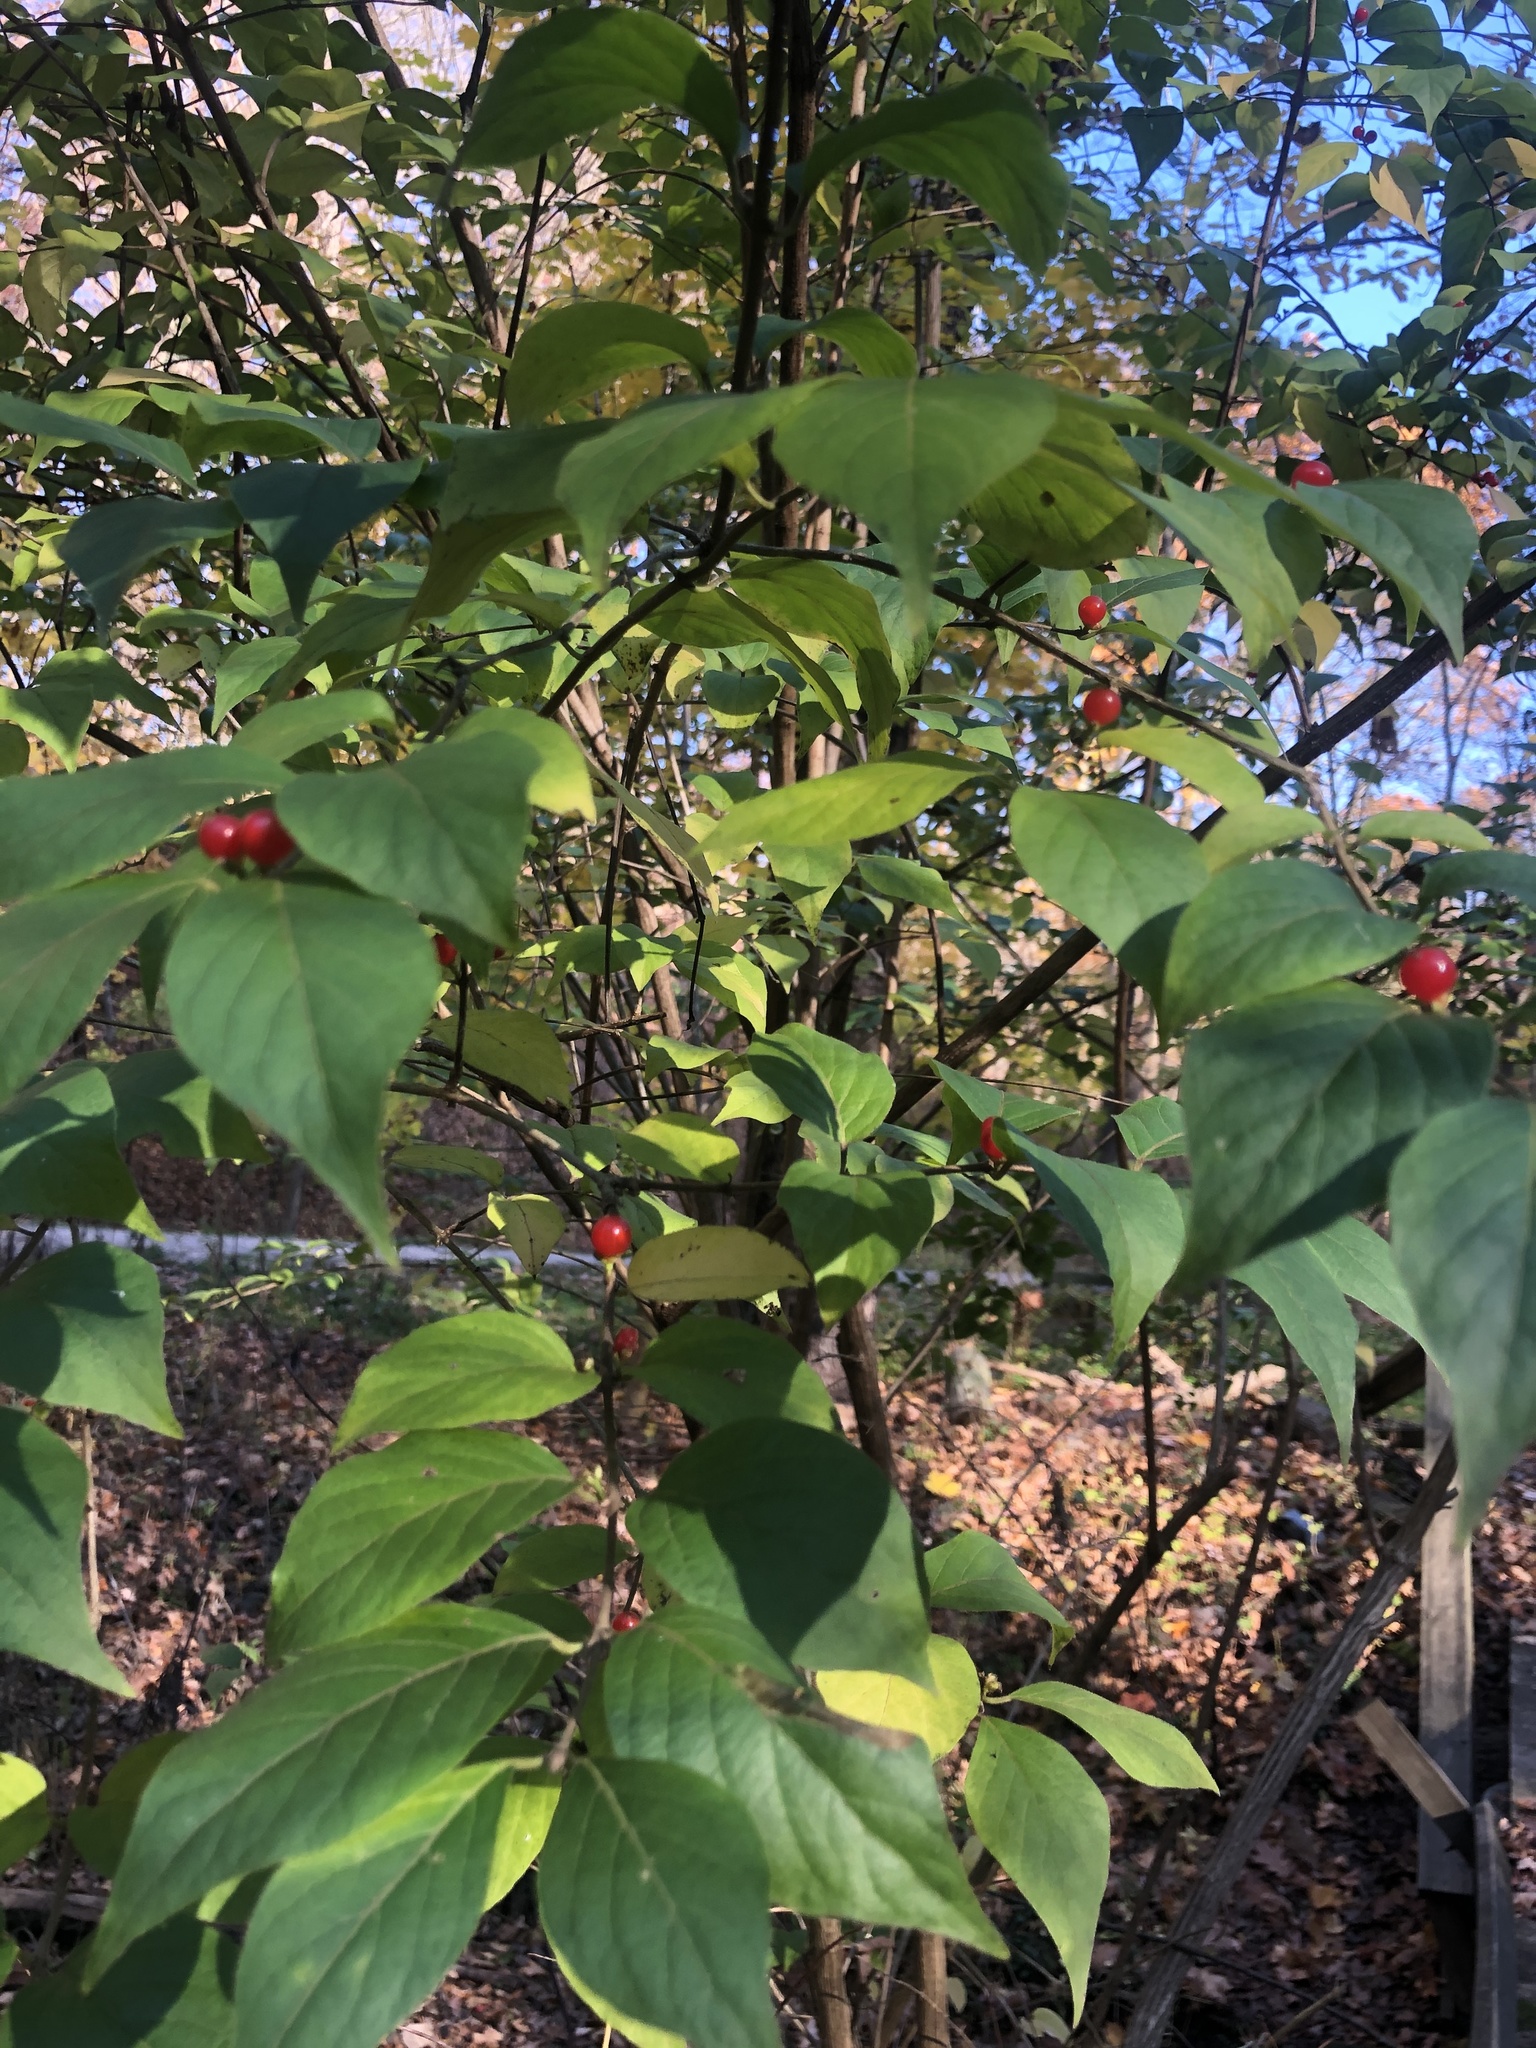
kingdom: Plantae
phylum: Tracheophyta
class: Magnoliopsida
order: Dipsacales
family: Caprifoliaceae
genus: Lonicera
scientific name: Lonicera maackii
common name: Amur honeysuckle
